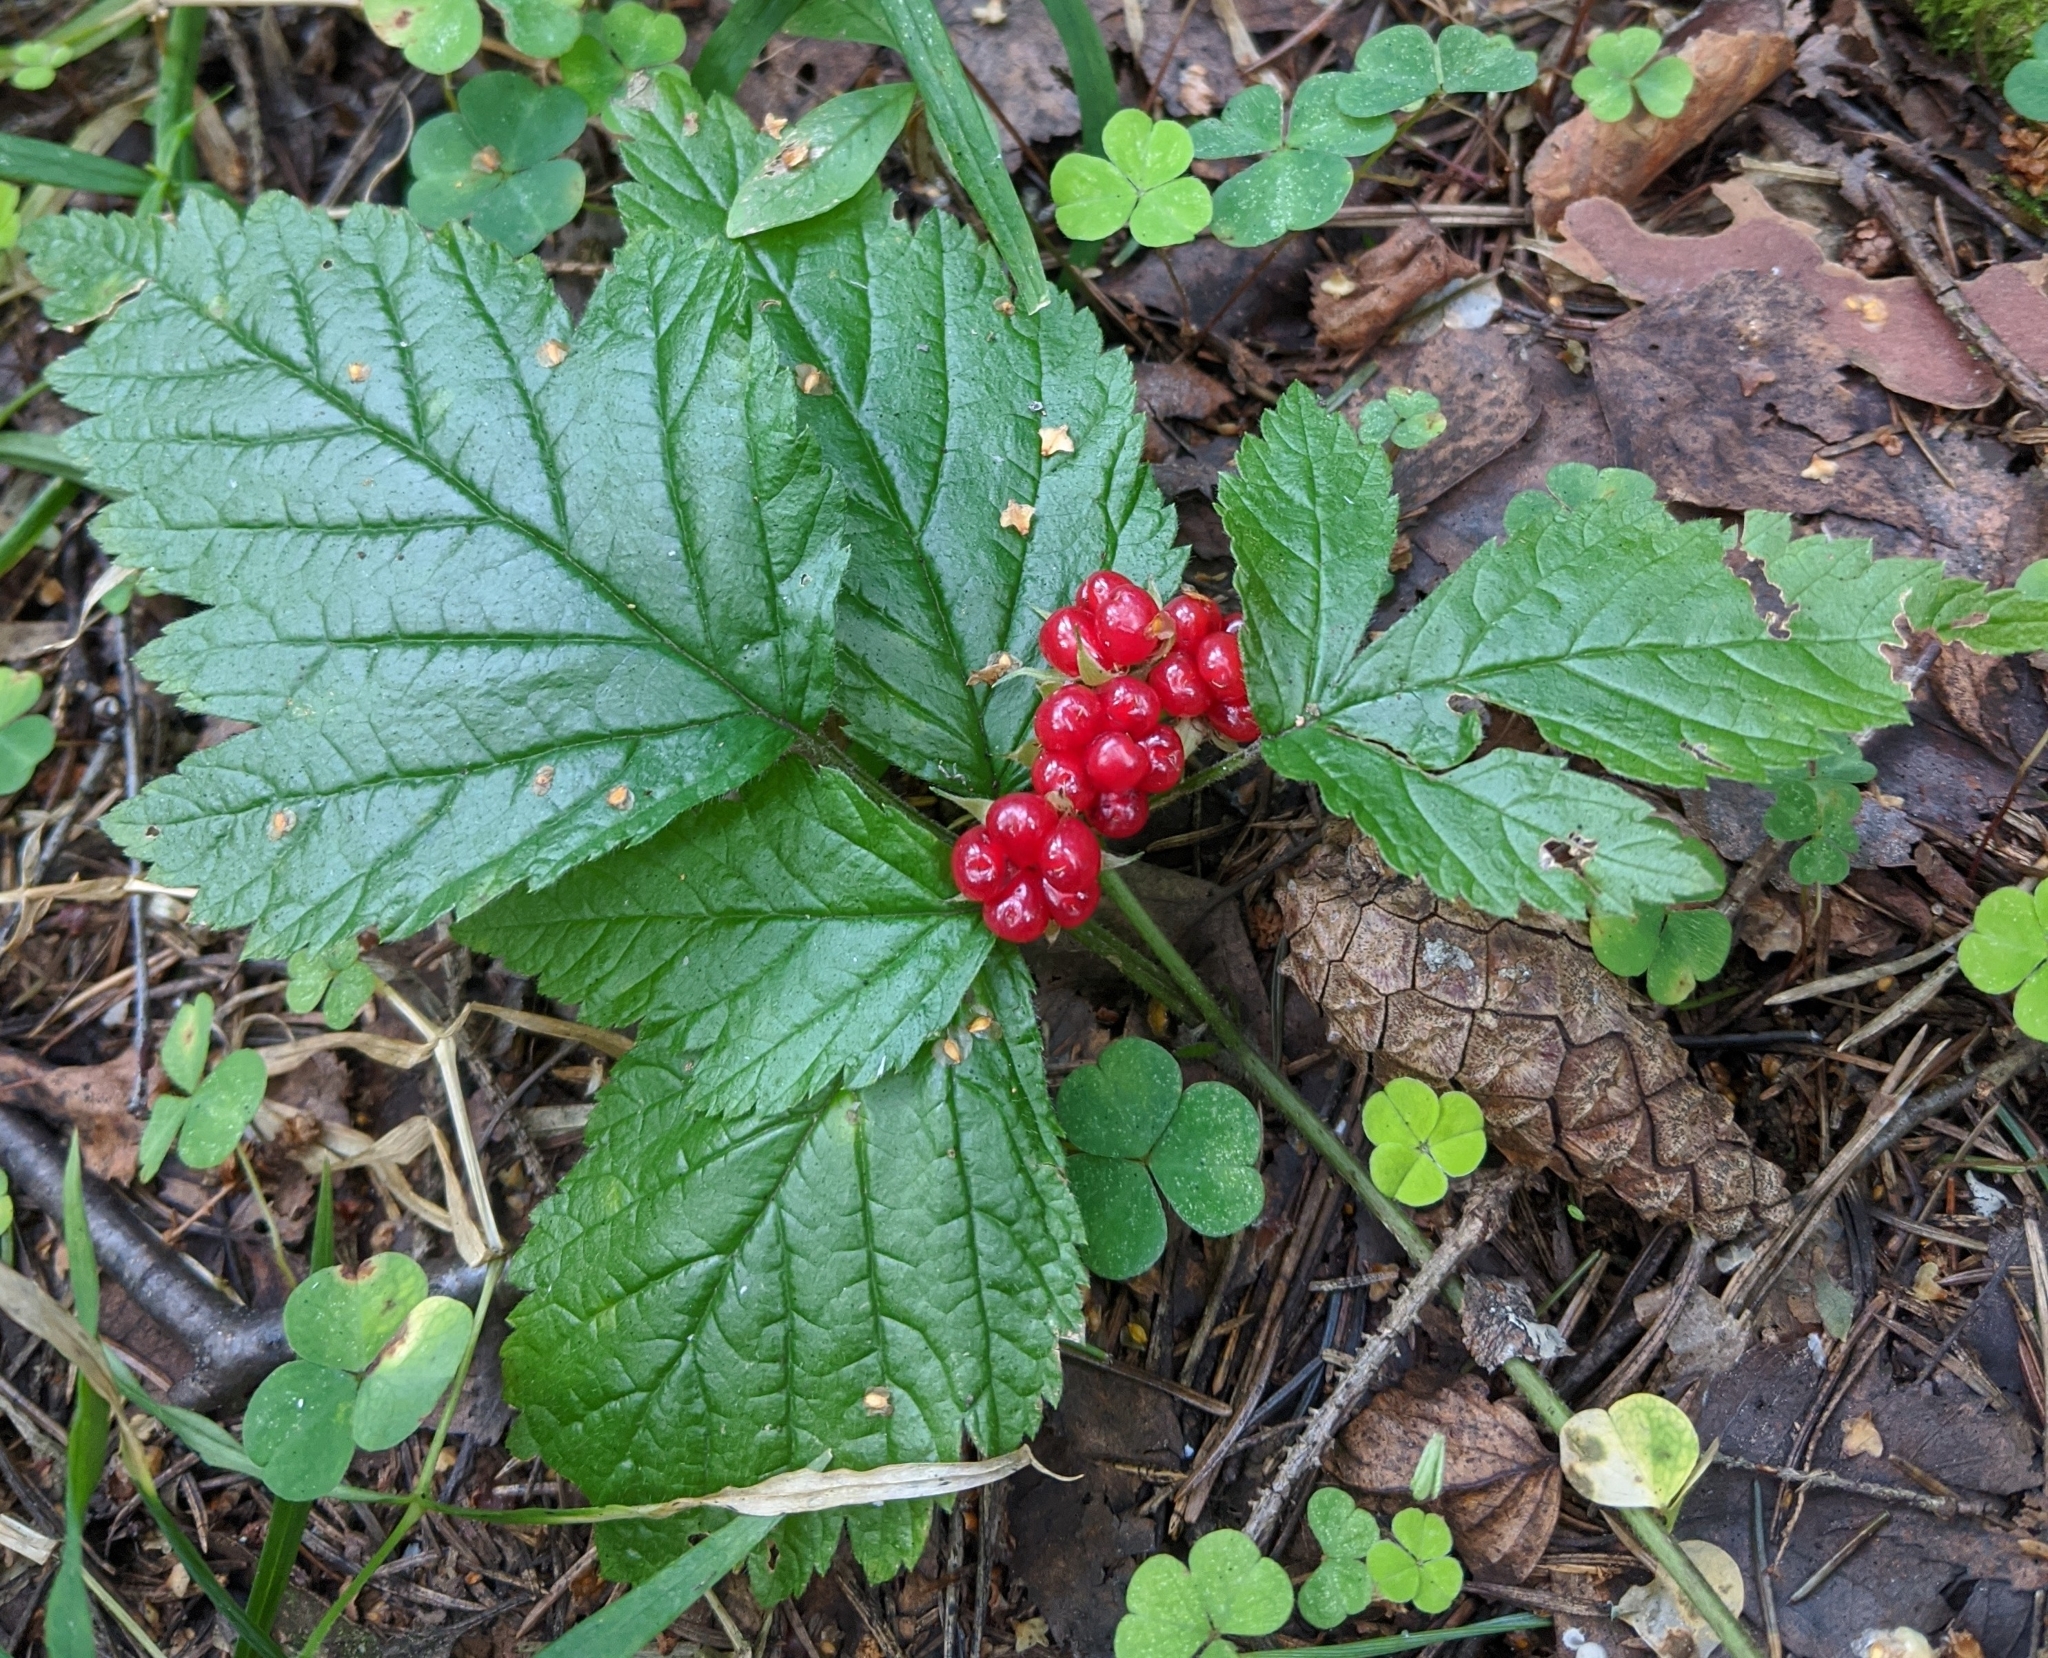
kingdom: Plantae
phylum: Tracheophyta
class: Magnoliopsida
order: Rosales
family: Rosaceae
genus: Rubus
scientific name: Rubus saxatilis
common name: Stone bramble
